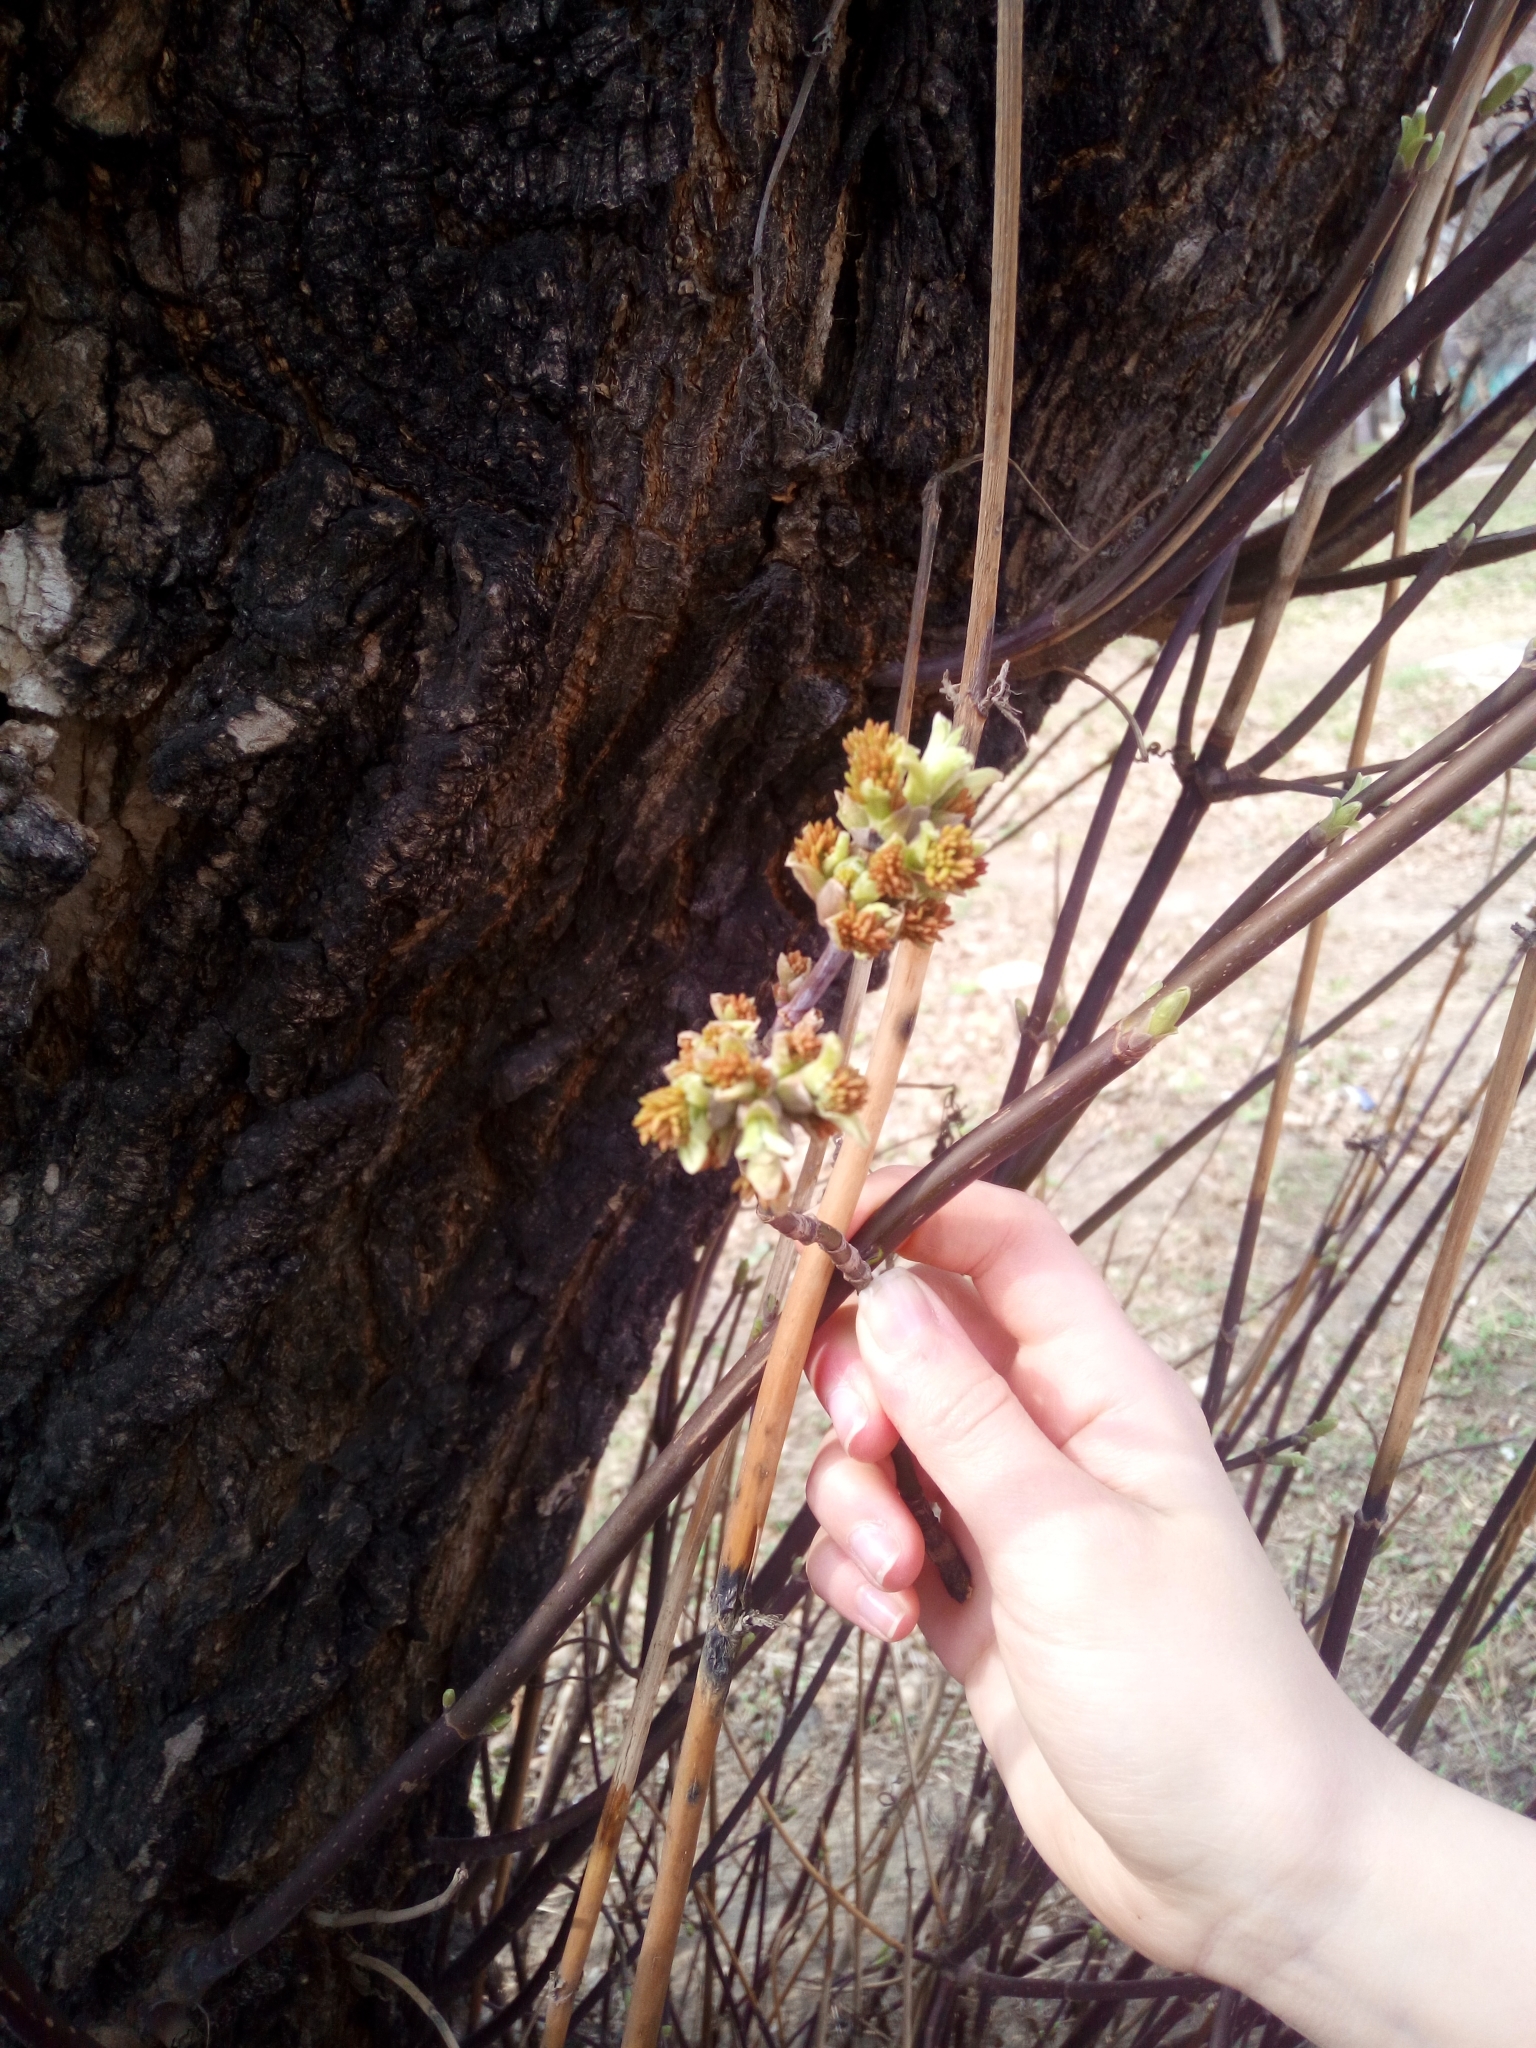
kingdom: Plantae
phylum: Tracheophyta
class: Magnoliopsida
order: Sapindales
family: Sapindaceae
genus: Acer
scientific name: Acer negundo
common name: Ashleaf maple
